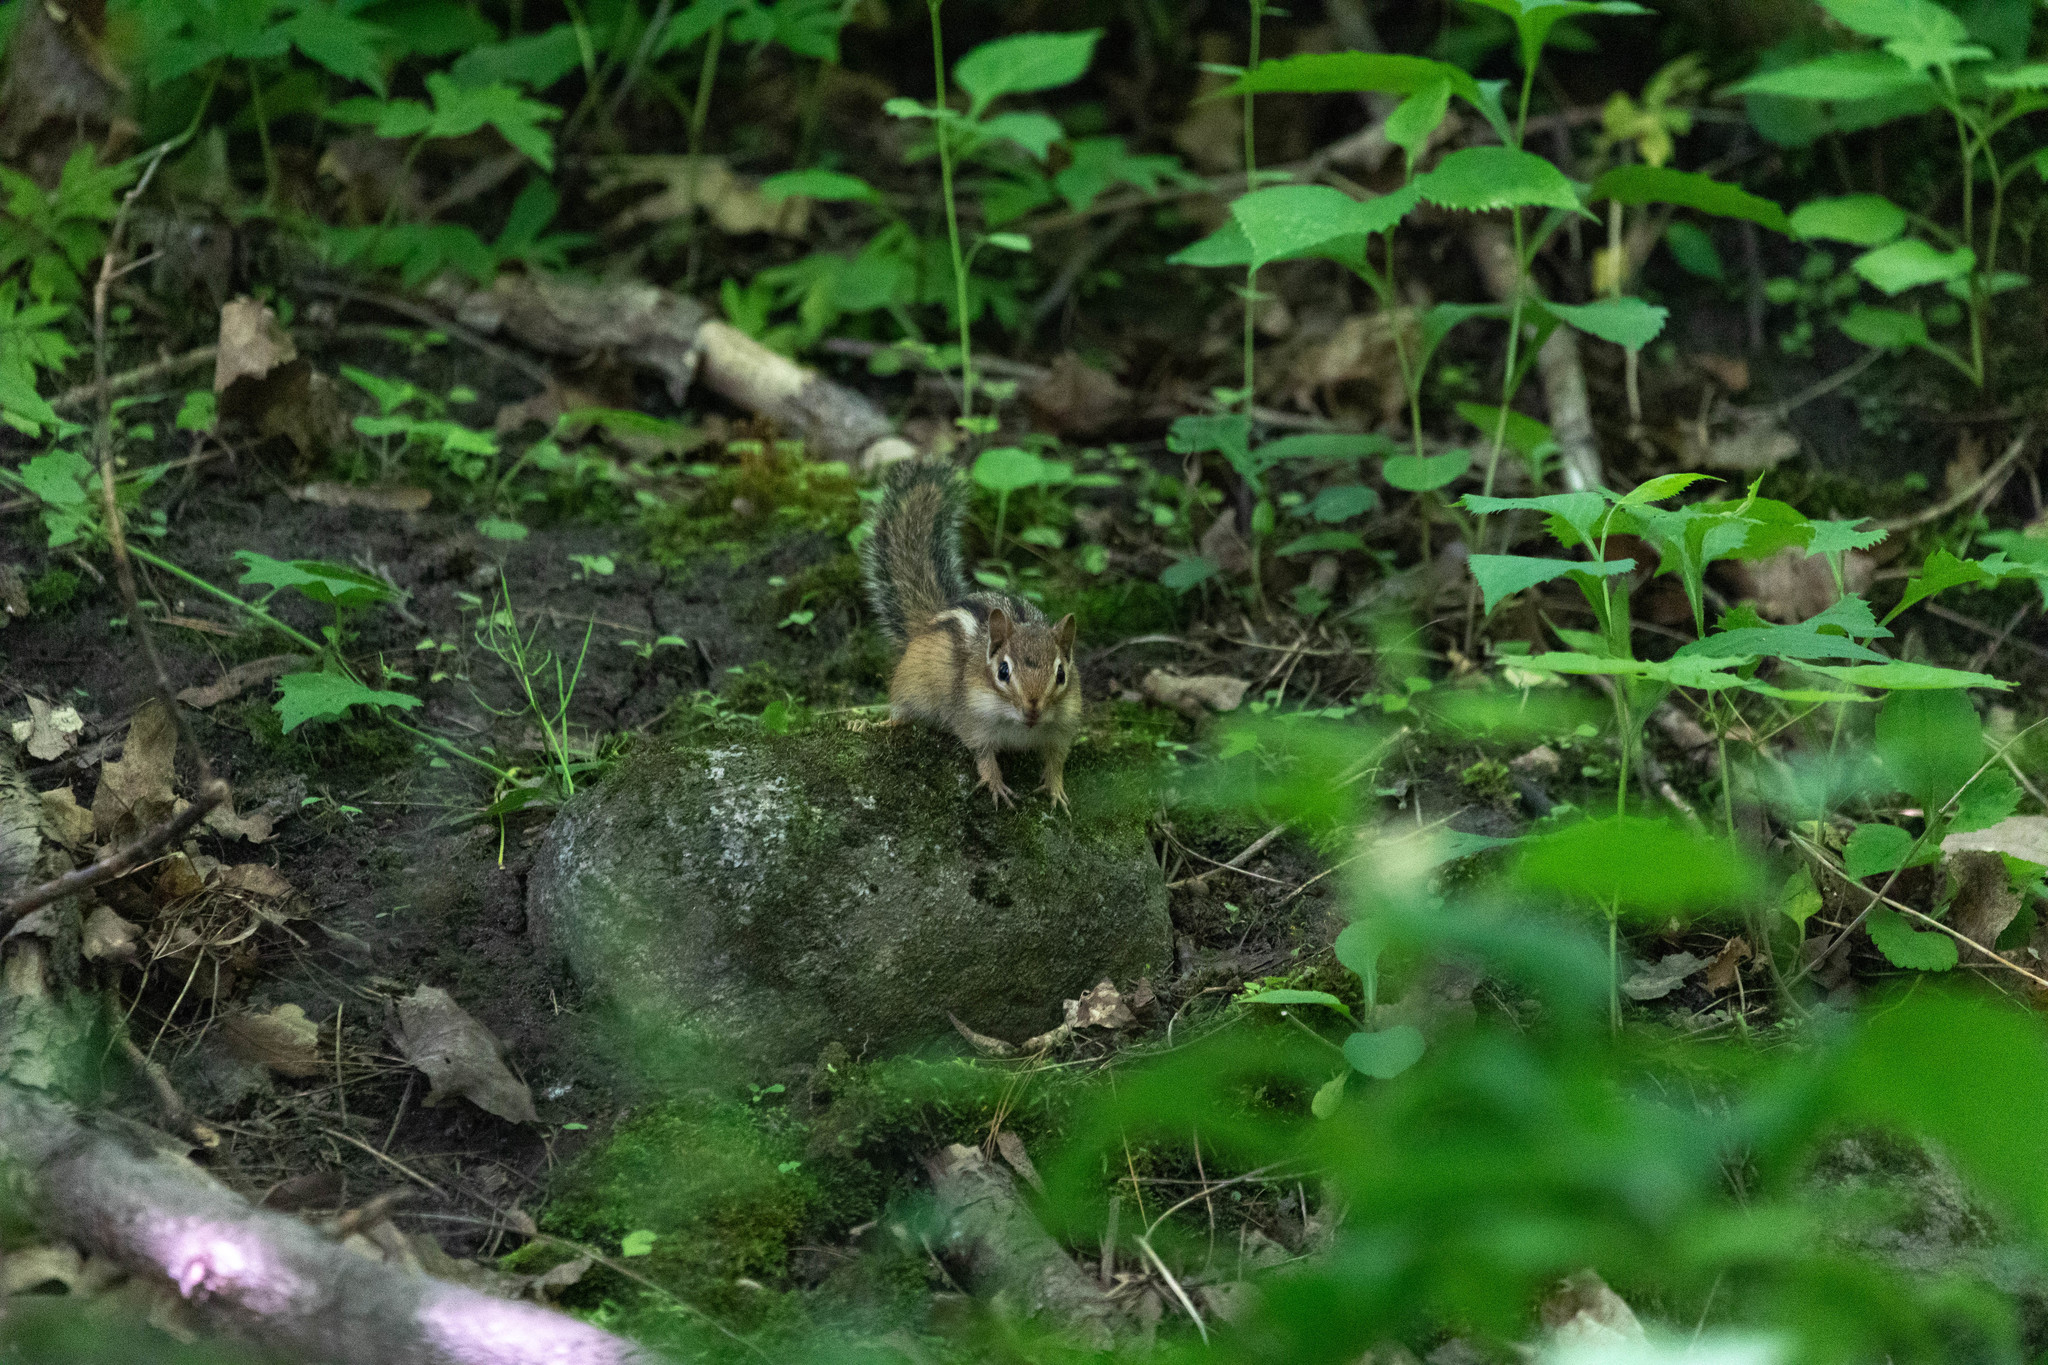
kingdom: Animalia
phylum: Chordata
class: Mammalia
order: Rodentia
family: Sciuridae
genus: Tamias
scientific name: Tamias striatus
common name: Eastern chipmunk
